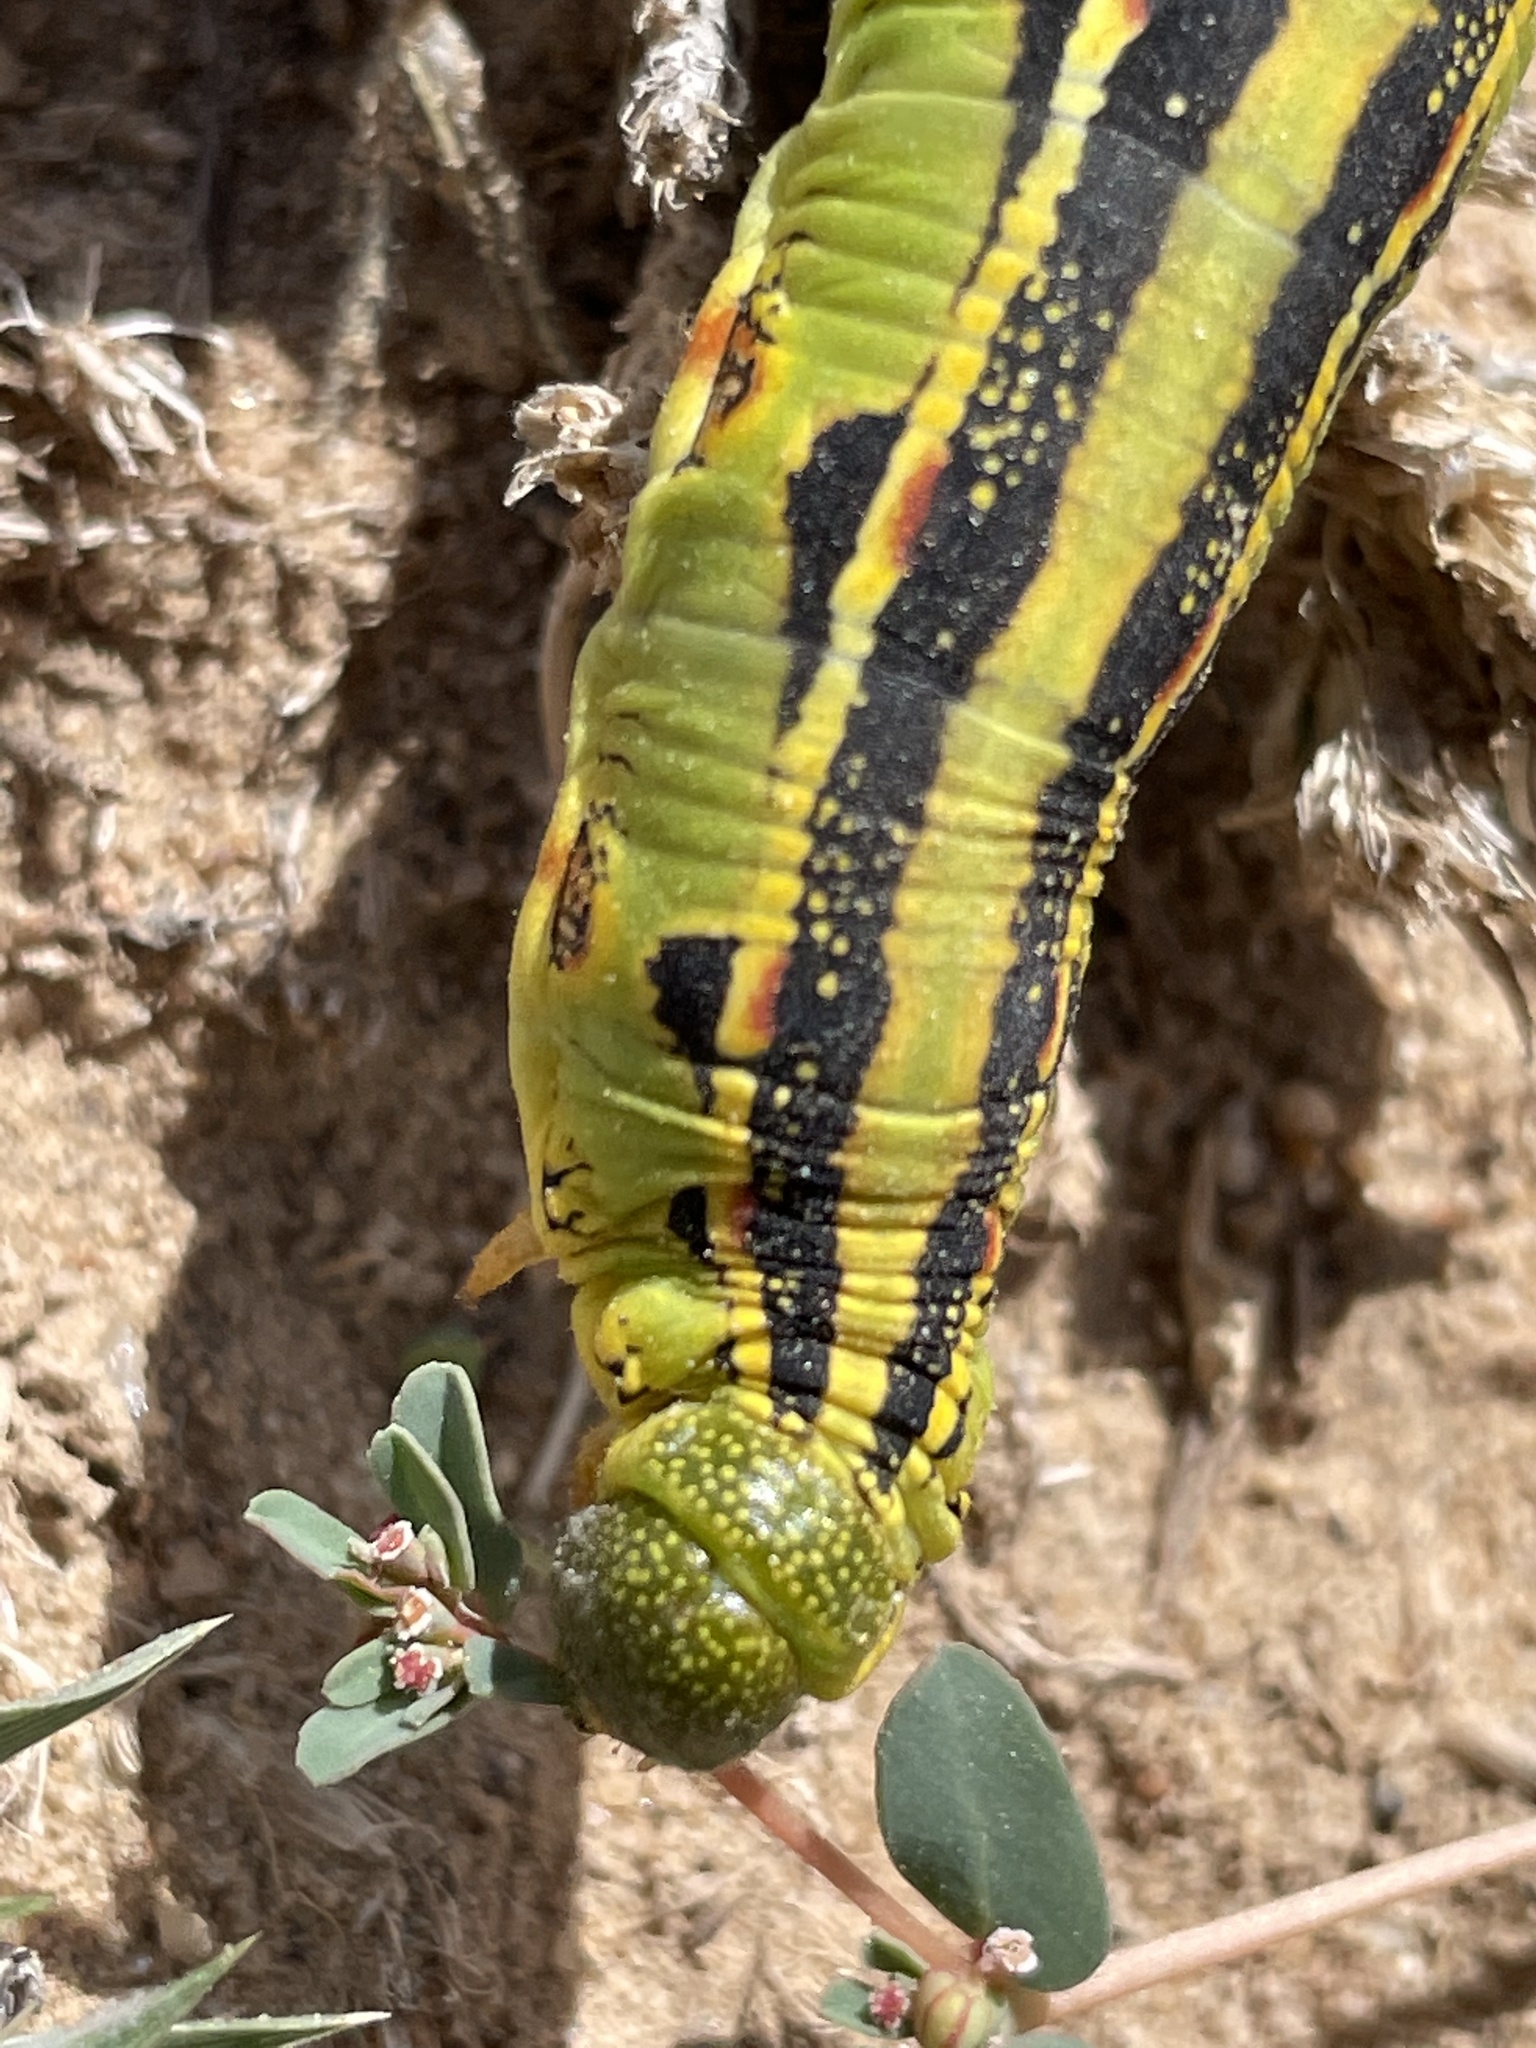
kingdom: Animalia
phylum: Arthropoda
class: Insecta
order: Lepidoptera
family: Sphingidae
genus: Hyles
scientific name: Hyles lineata
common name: White-lined sphinx
